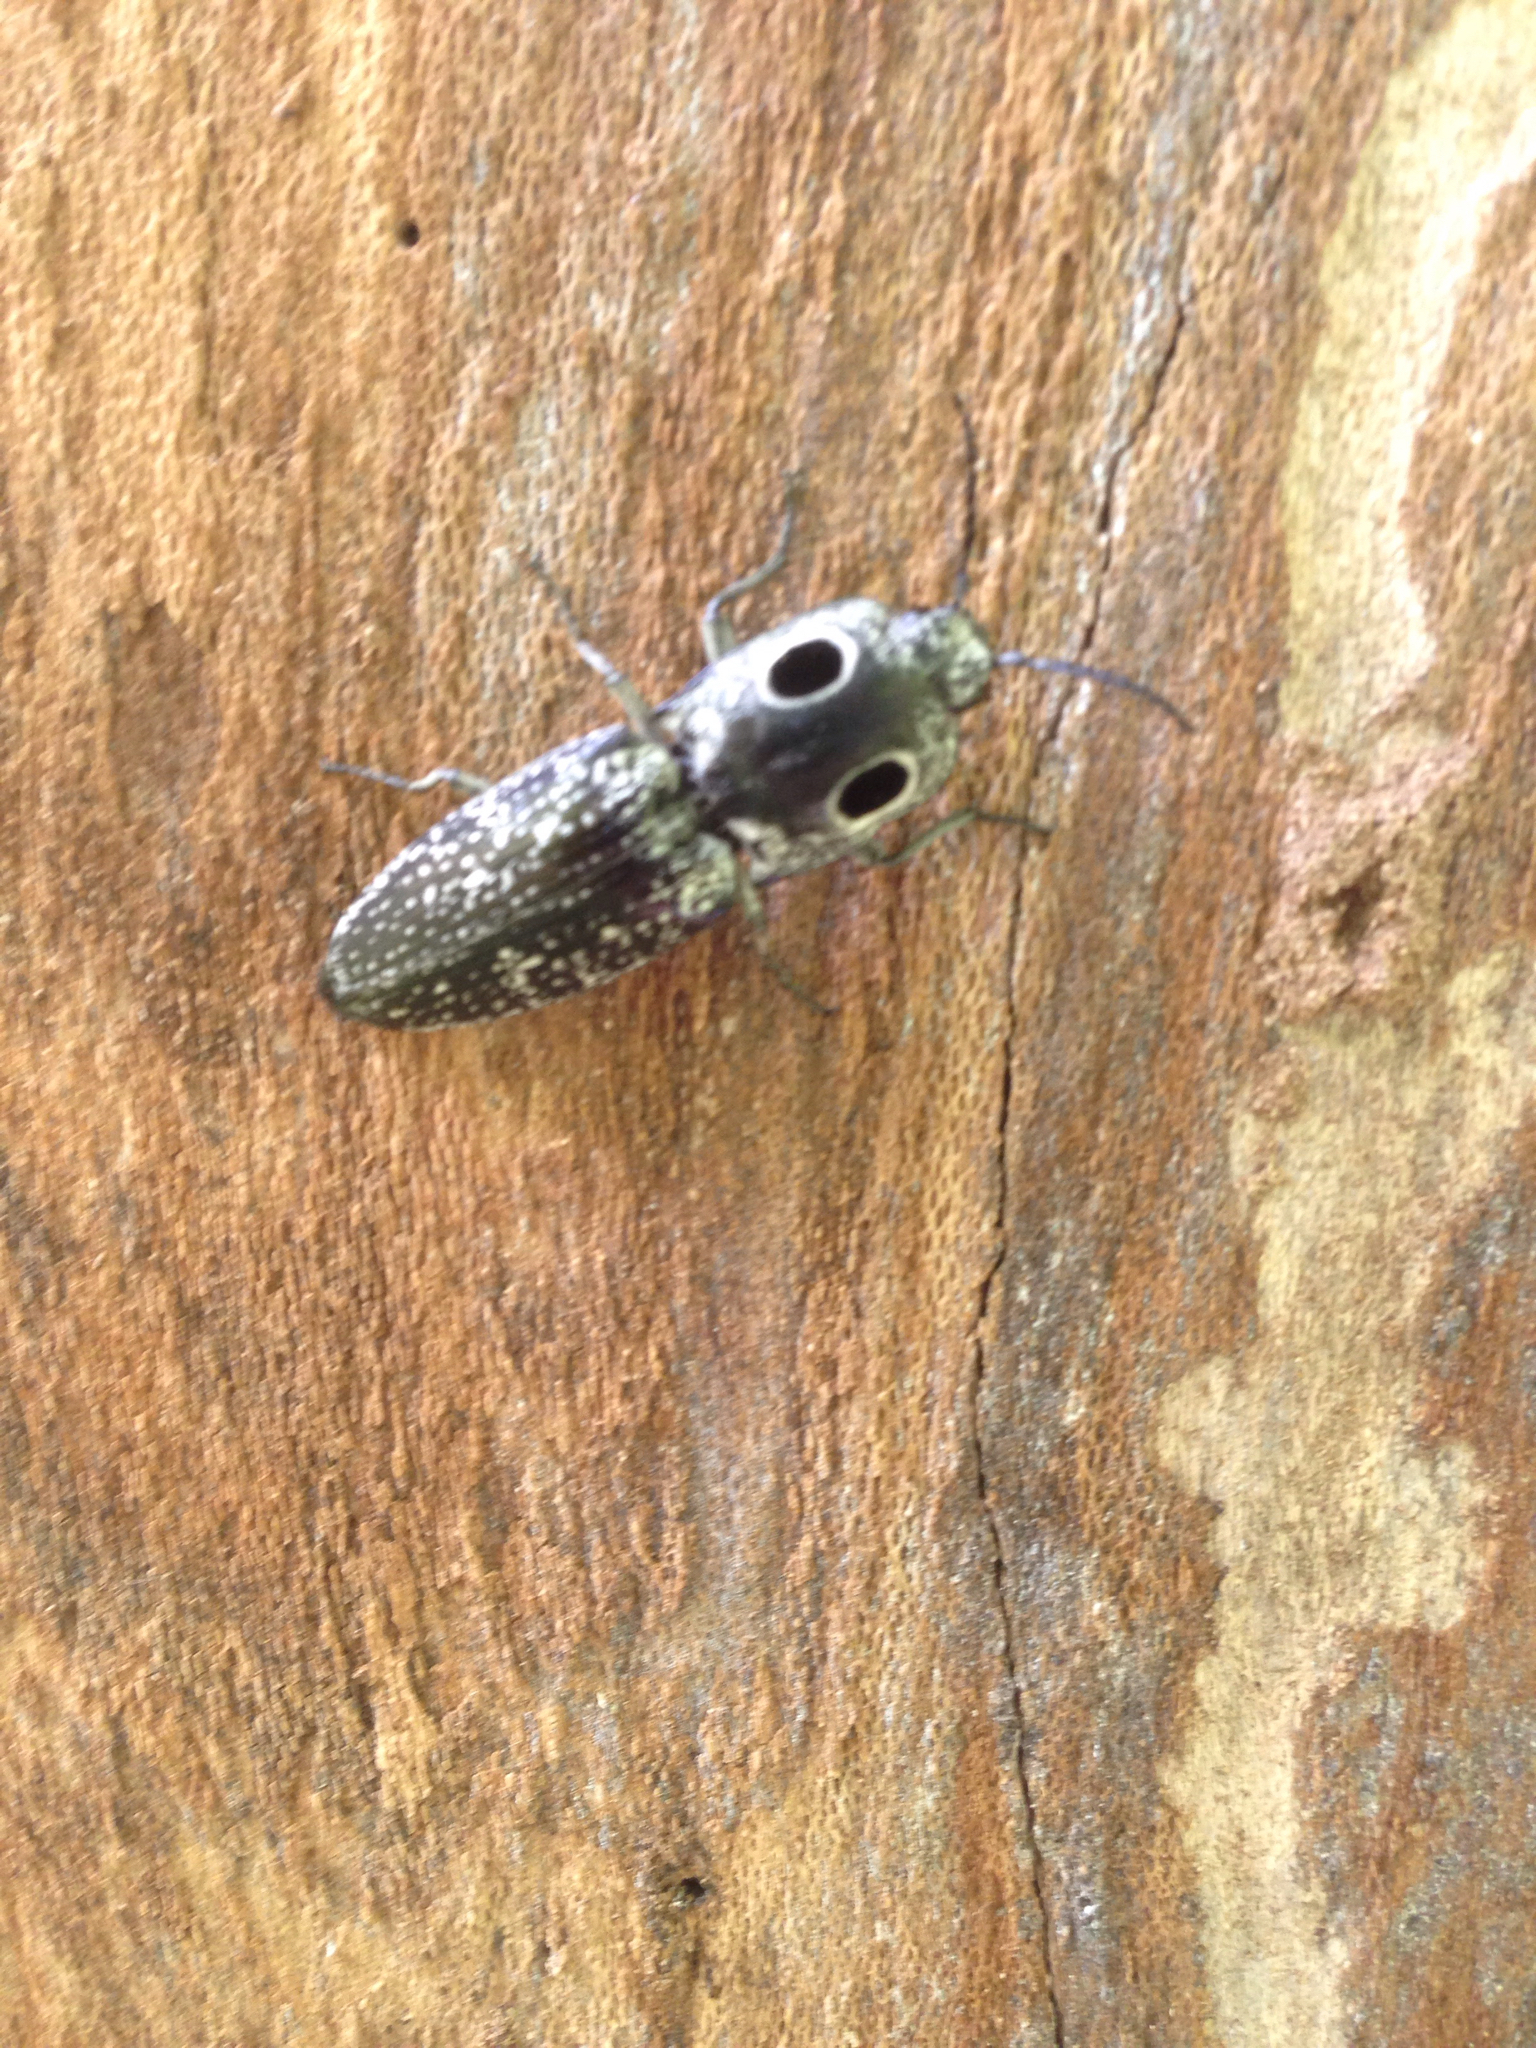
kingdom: Animalia
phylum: Arthropoda
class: Insecta
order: Coleoptera
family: Elateridae
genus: Alaus
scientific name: Alaus oculatus
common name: Eastern eyed click beetle
